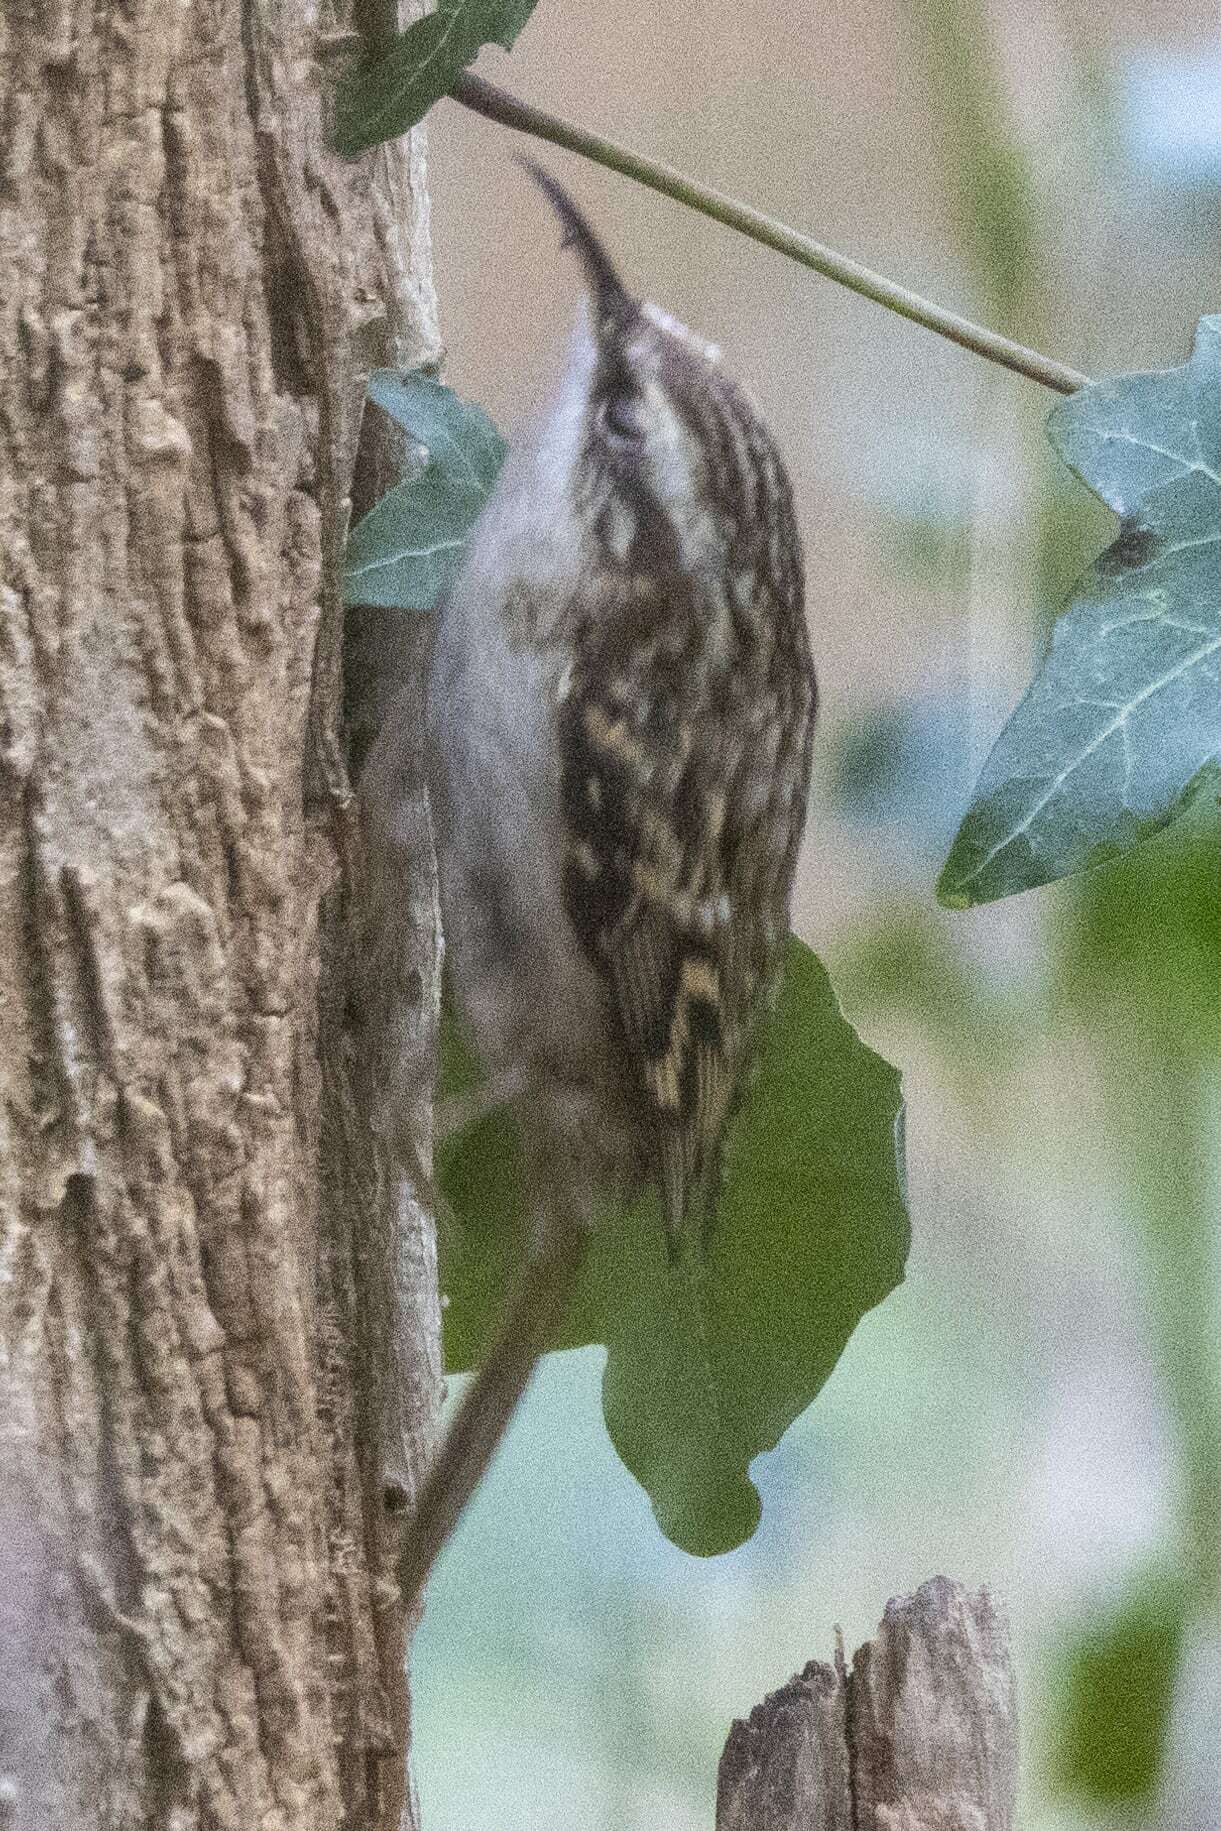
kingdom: Animalia
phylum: Chordata
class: Aves
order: Passeriformes
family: Certhiidae
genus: Certhia
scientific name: Certhia brachydactyla
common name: Short-toed treecreeper
